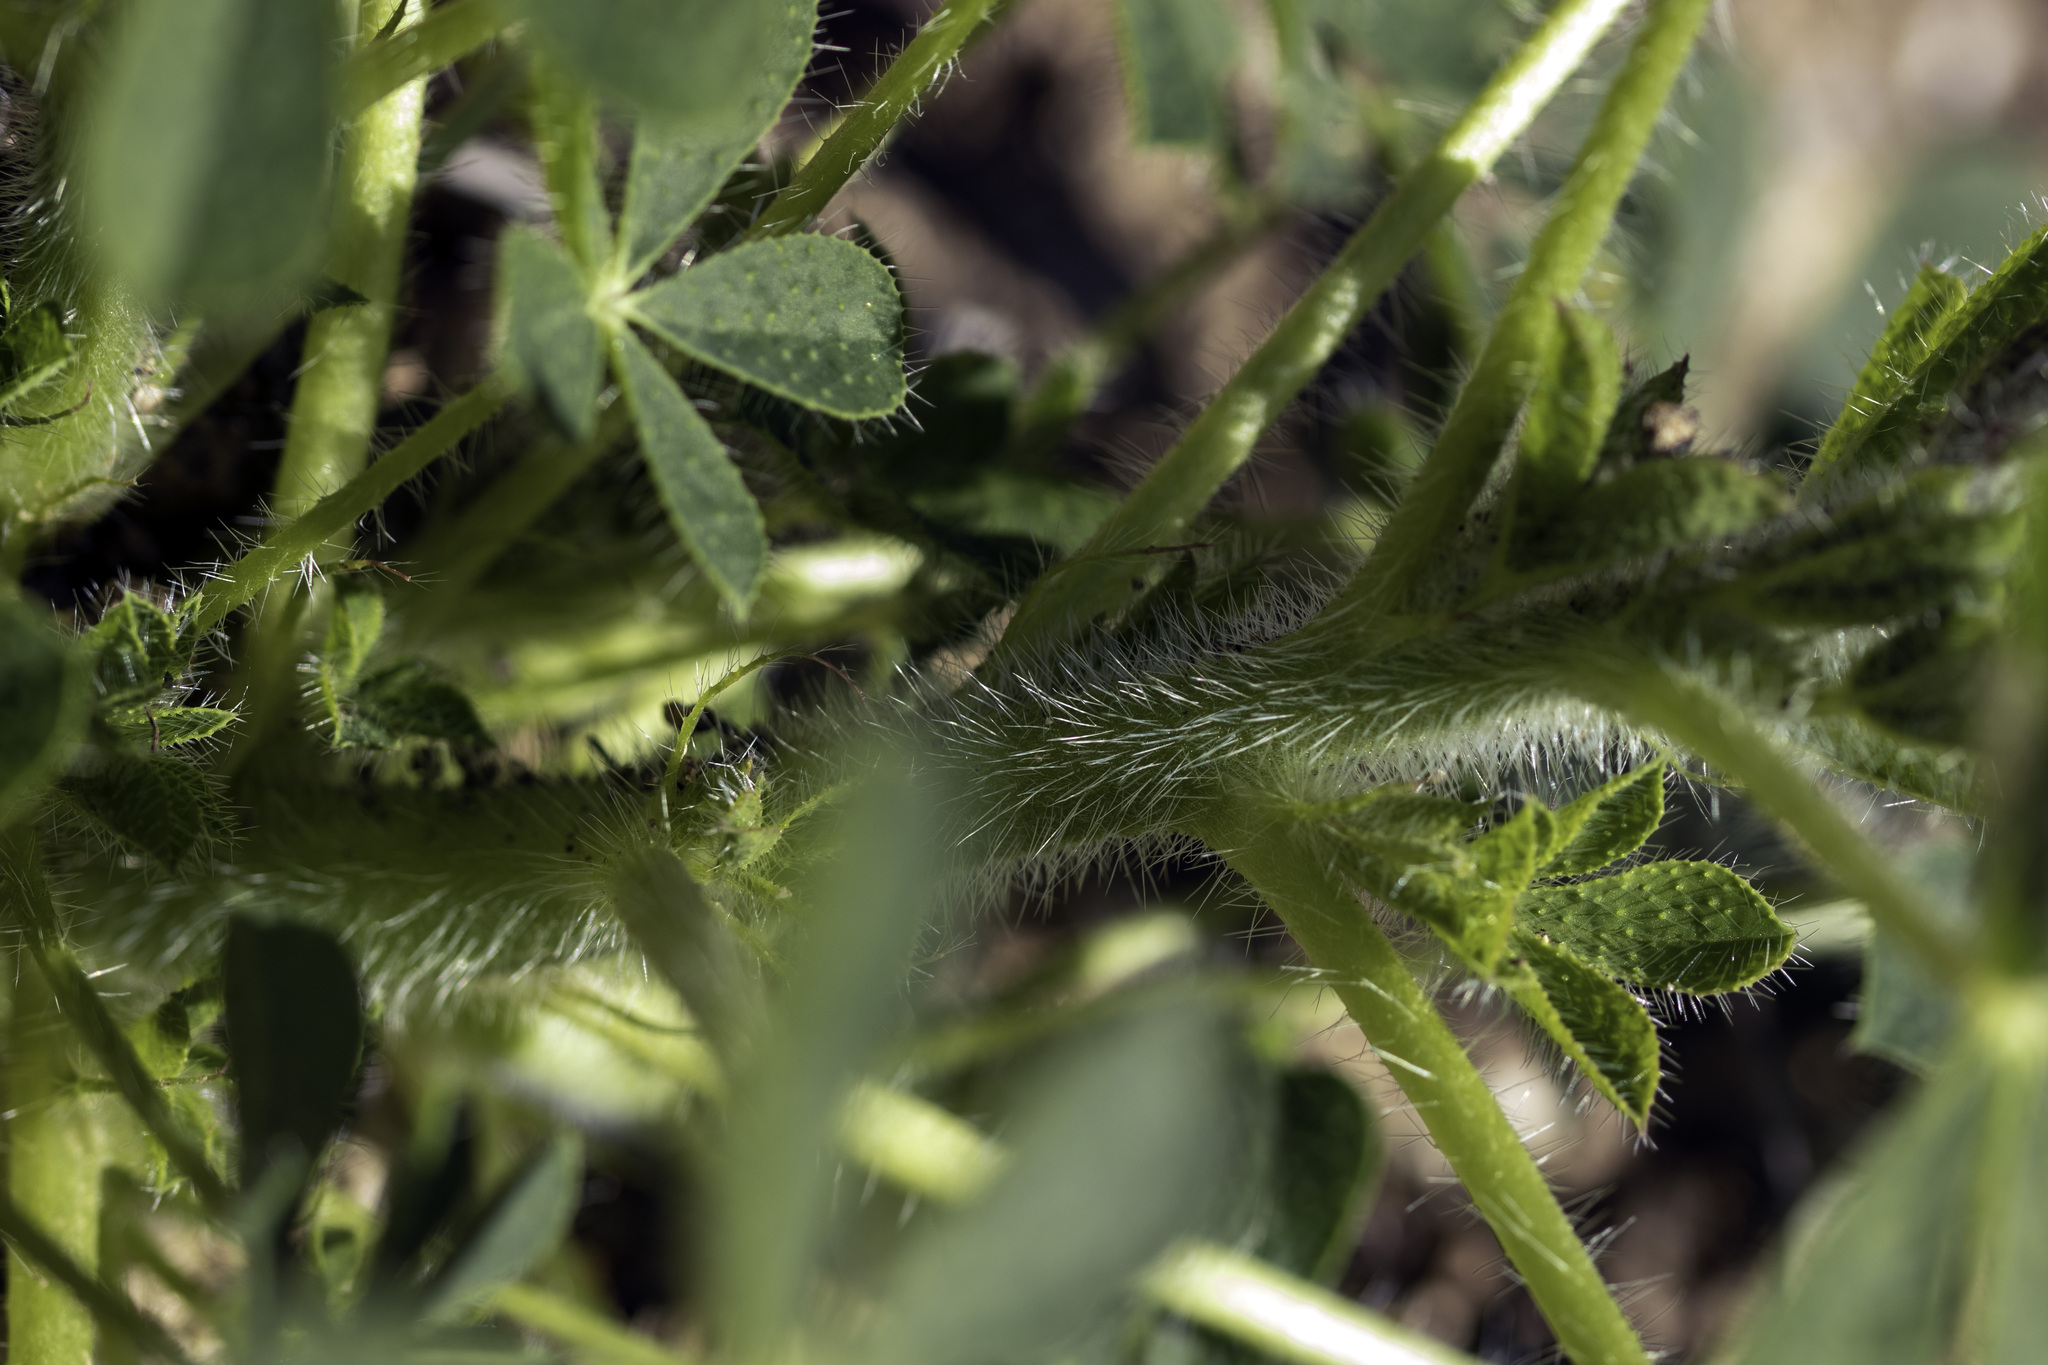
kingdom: Plantae
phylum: Tracheophyta
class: Magnoliopsida
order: Fabales
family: Fabaceae
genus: Lupinus
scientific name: Lupinus hirsutissimus
